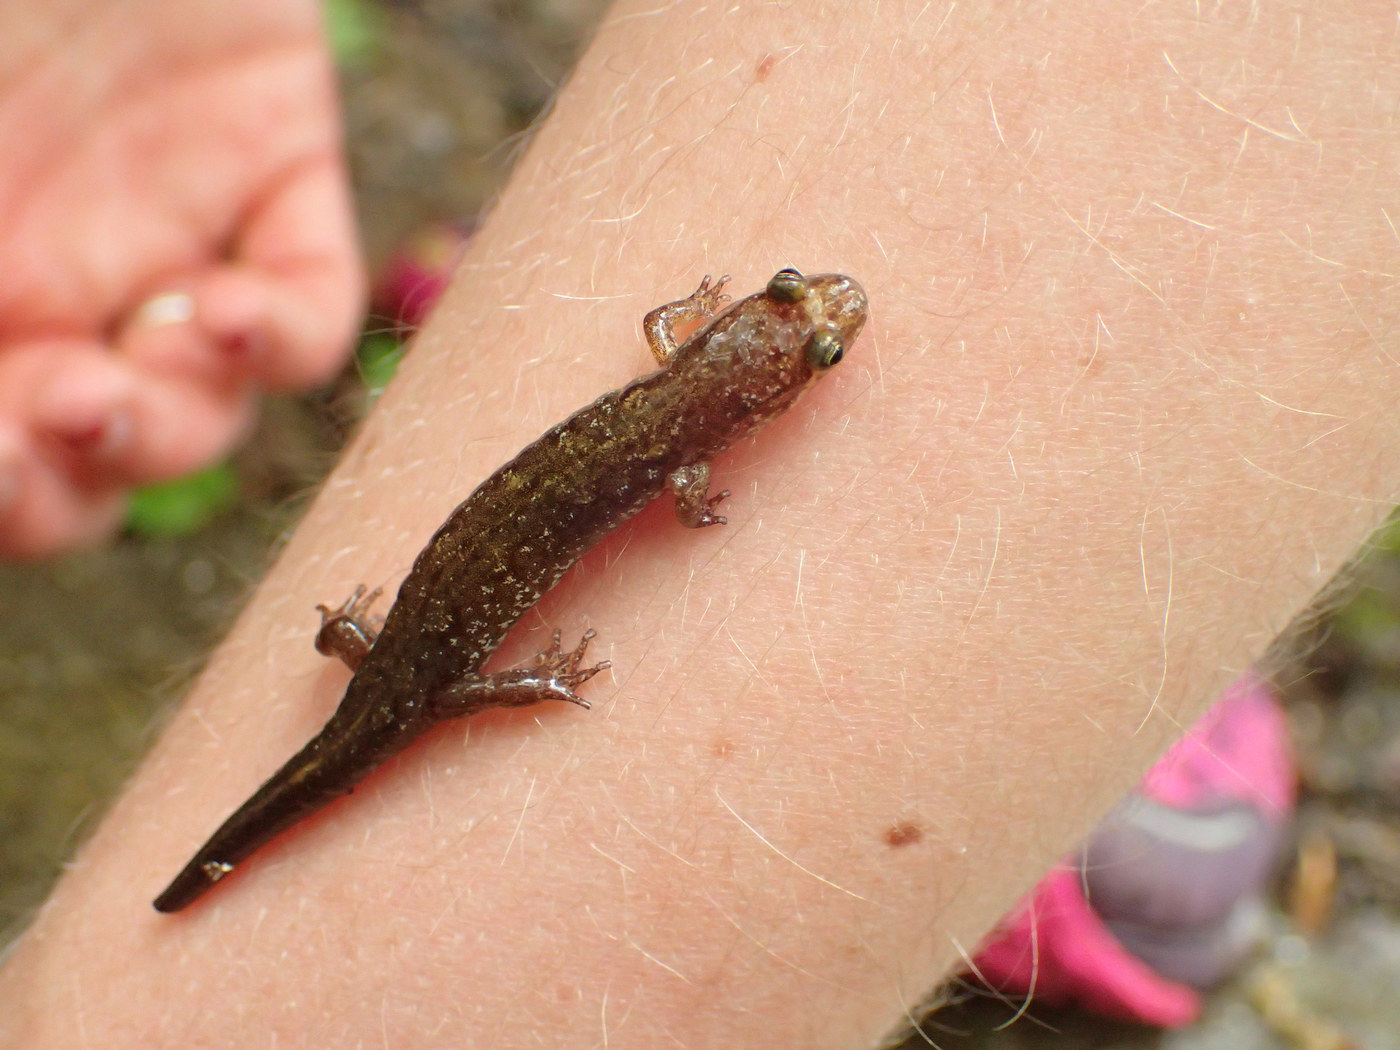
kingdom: Animalia
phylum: Chordata
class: Amphibia
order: Caudata
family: Plethodontidae
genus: Desmognathus
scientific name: Desmognathus monticola
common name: Seal salamander
